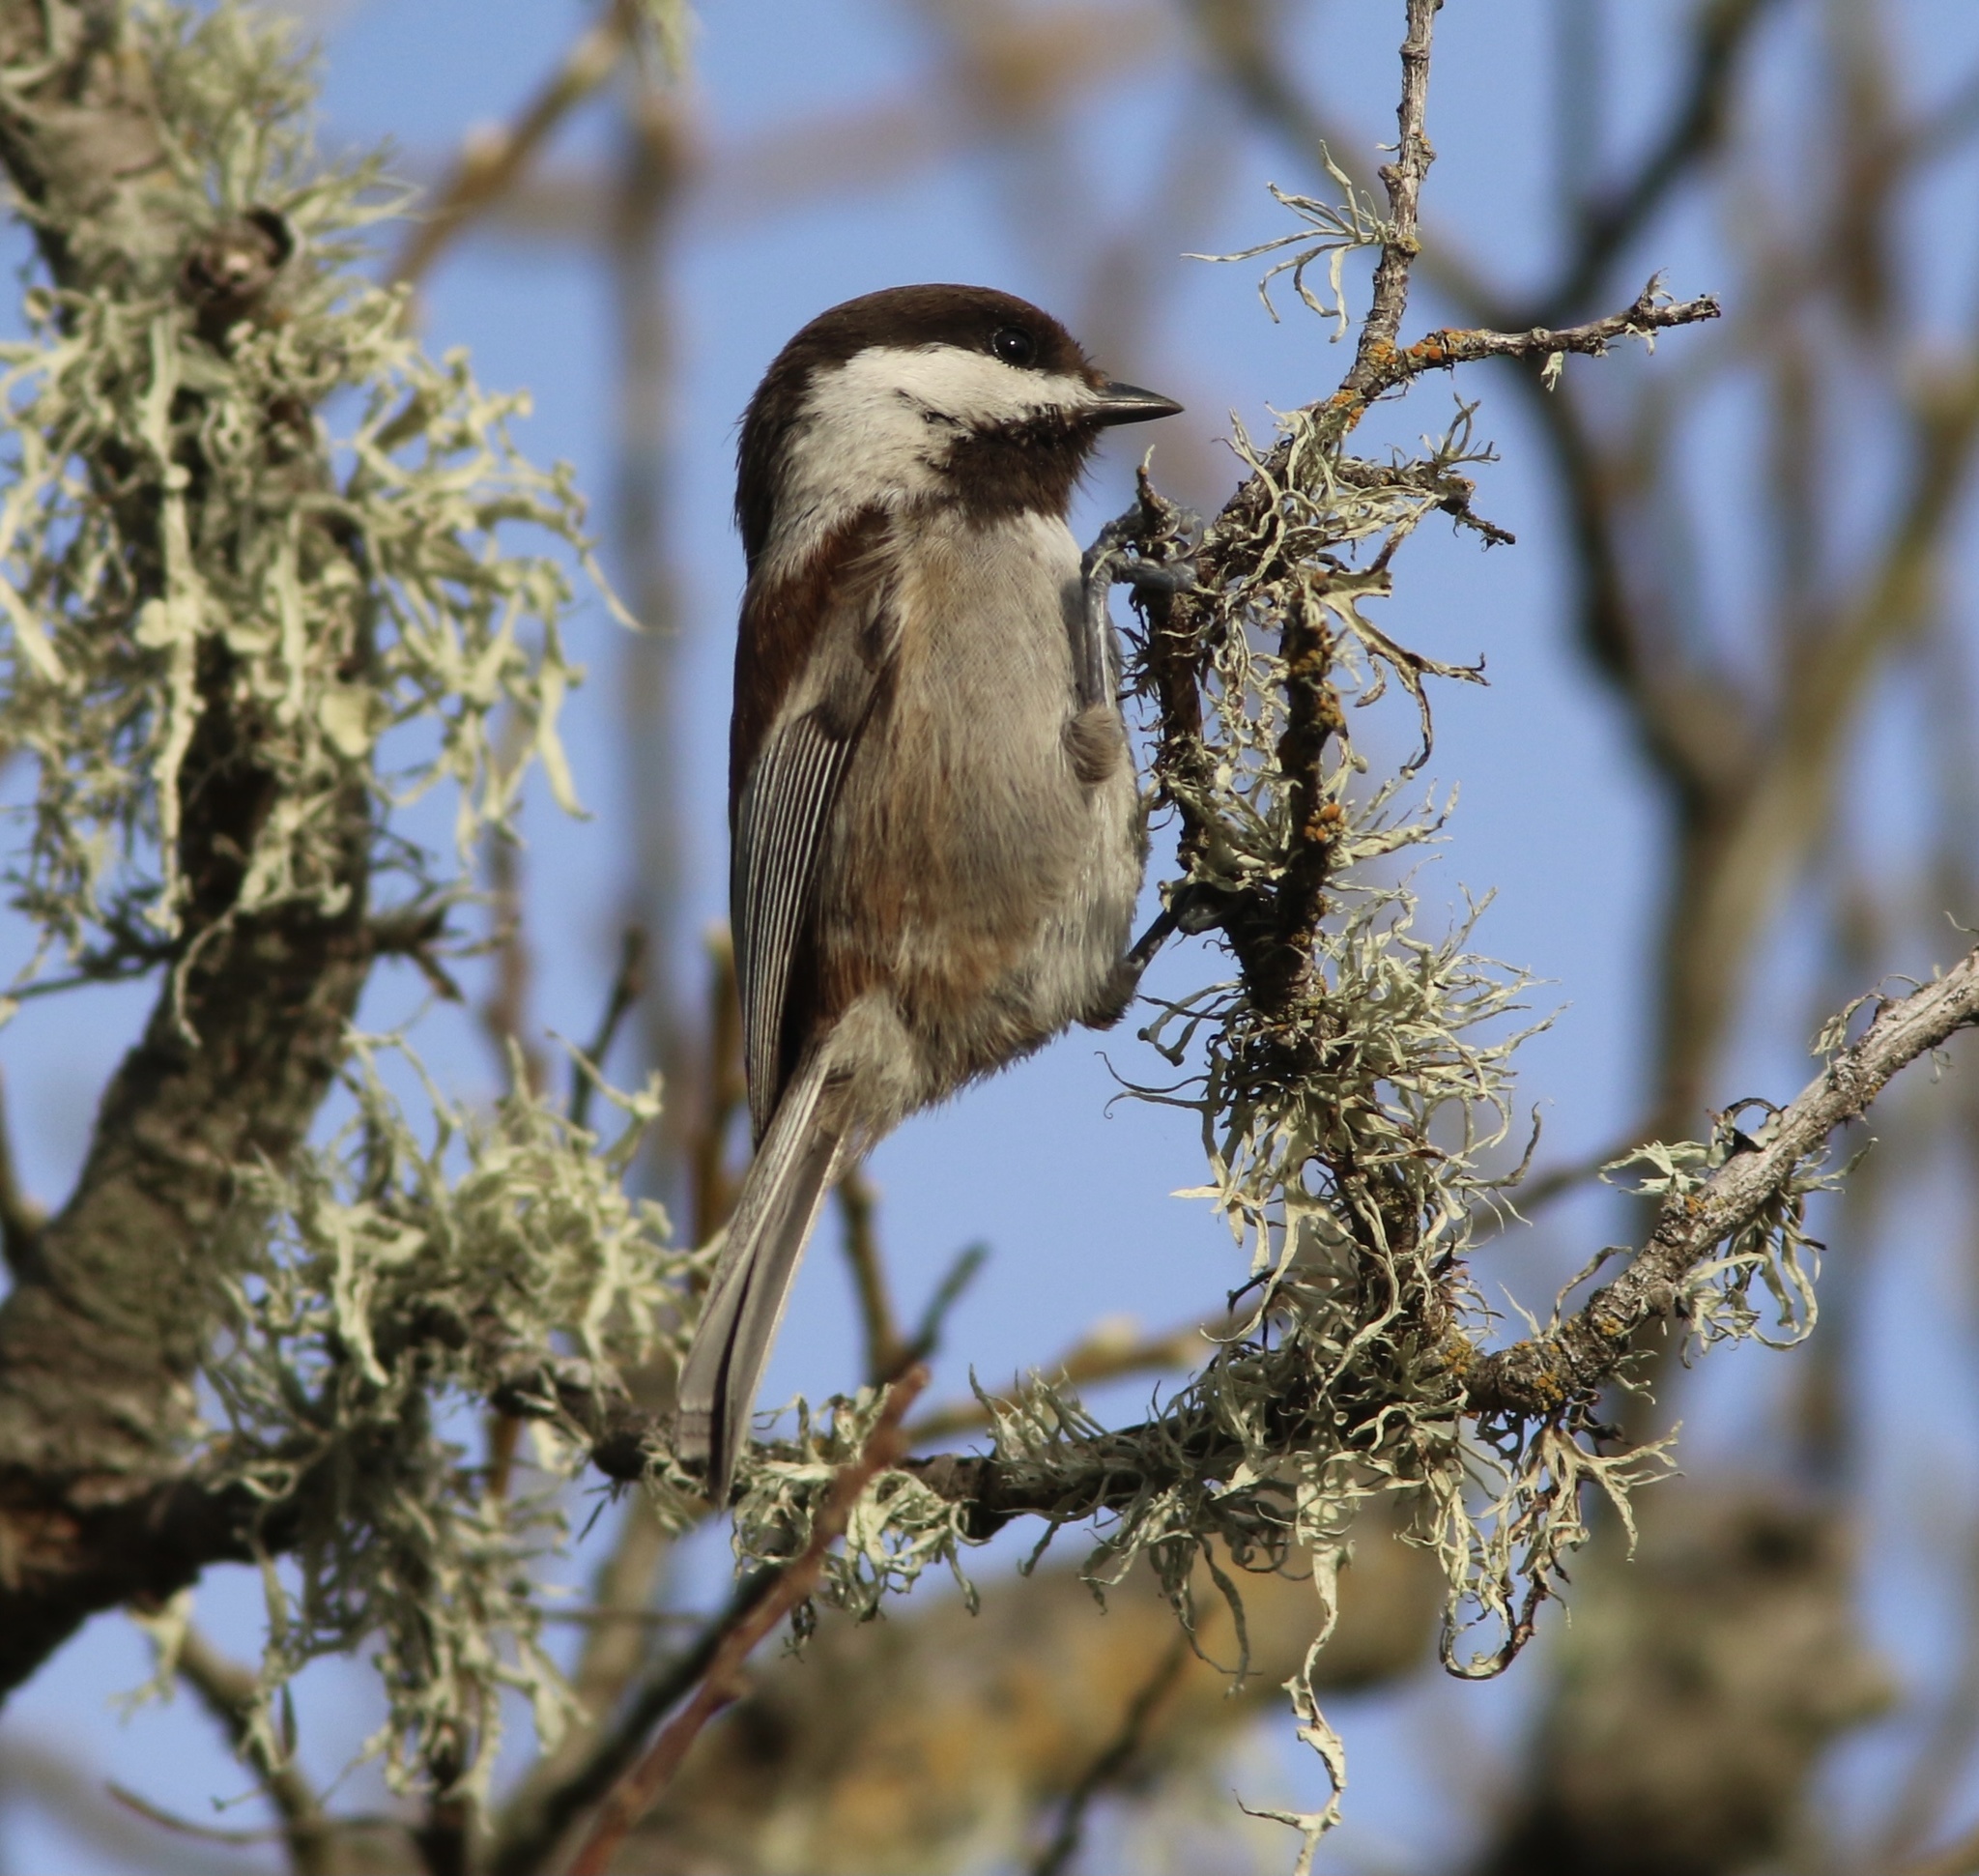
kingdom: Animalia
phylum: Chordata
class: Aves
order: Passeriformes
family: Paridae
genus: Poecile
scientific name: Poecile rufescens
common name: Chestnut-backed chickadee
